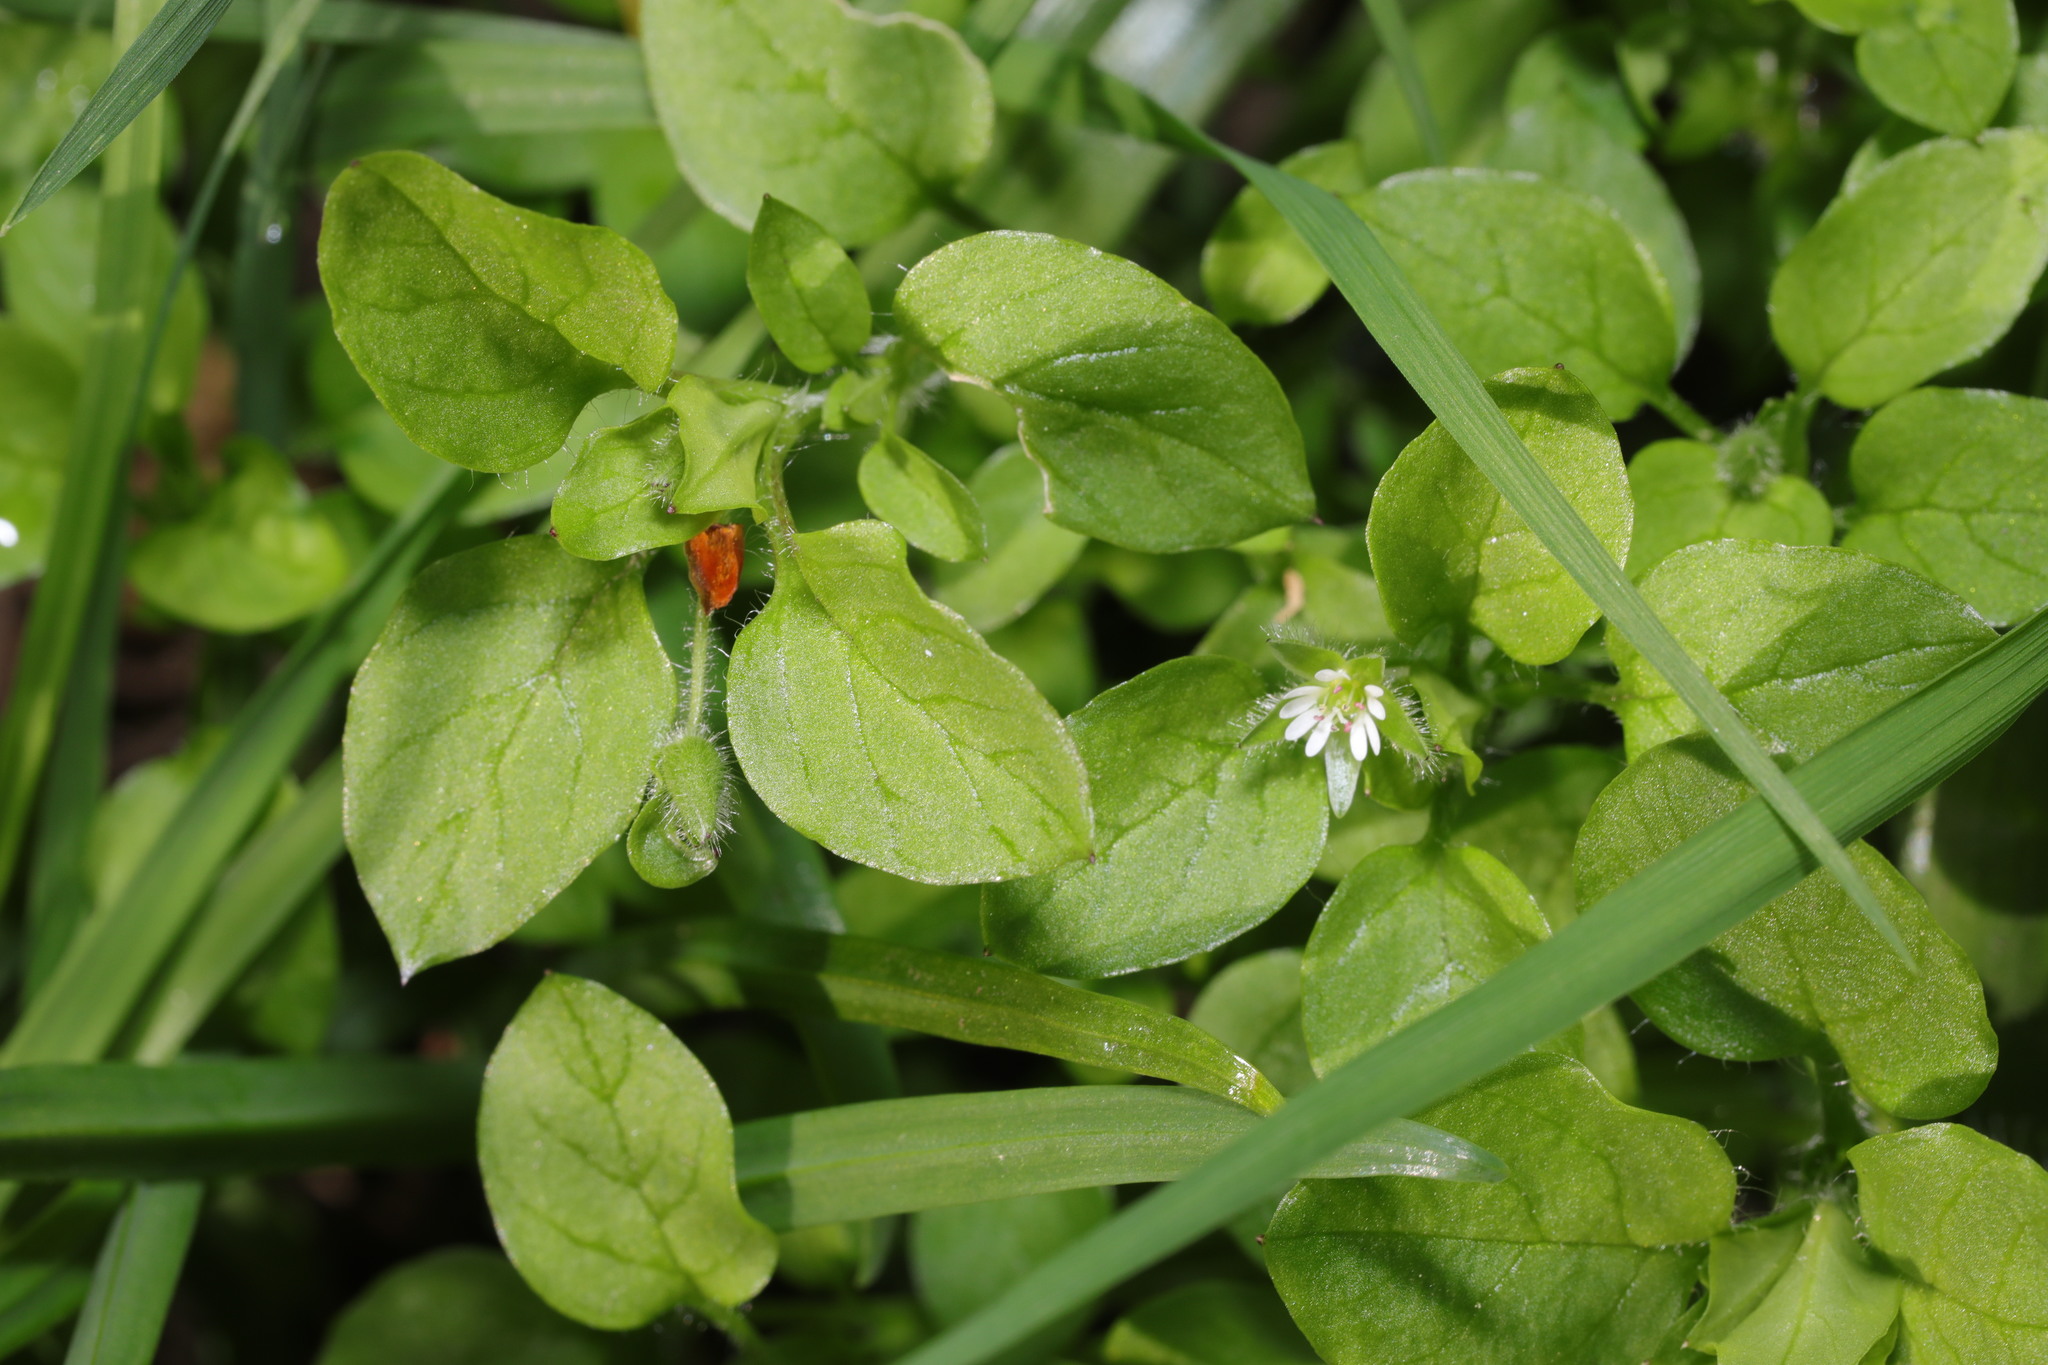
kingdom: Plantae
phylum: Tracheophyta
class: Magnoliopsida
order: Caryophyllales
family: Caryophyllaceae
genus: Stellaria
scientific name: Stellaria media
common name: Common chickweed
